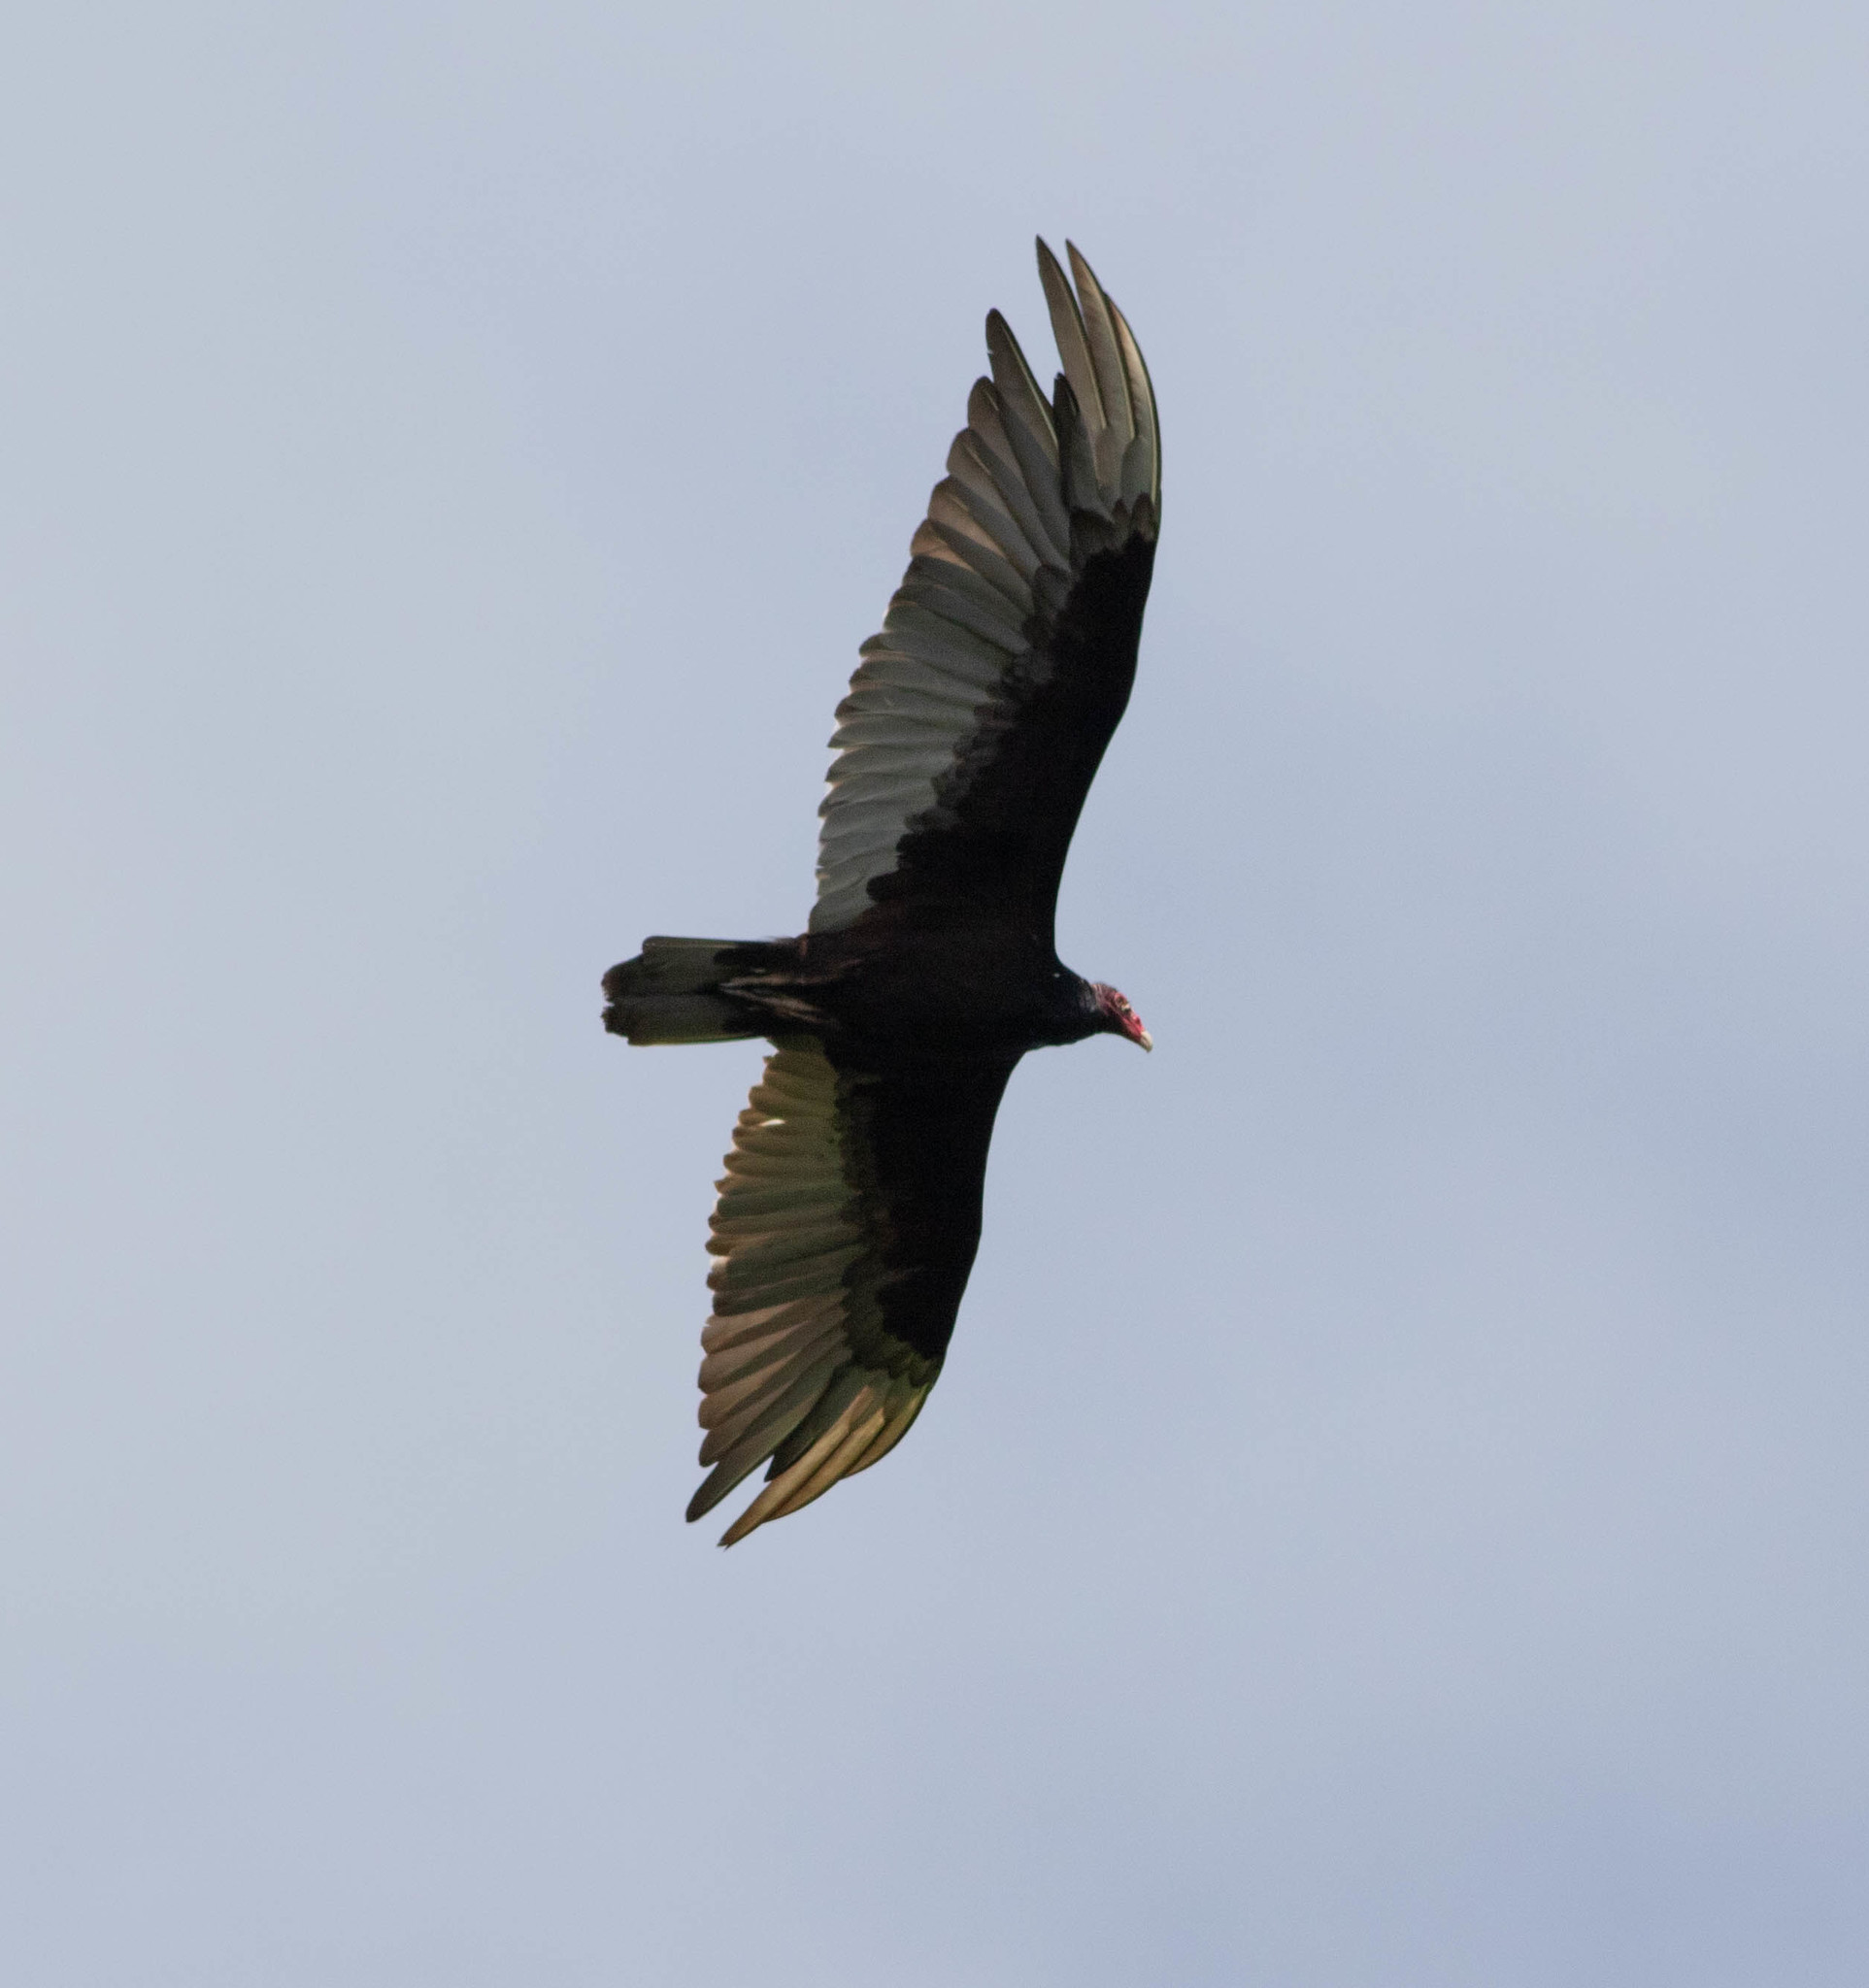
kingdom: Animalia
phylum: Chordata
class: Aves
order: Accipitriformes
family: Cathartidae
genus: Cathartes
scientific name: Cathartes aura
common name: Turkey vulture
